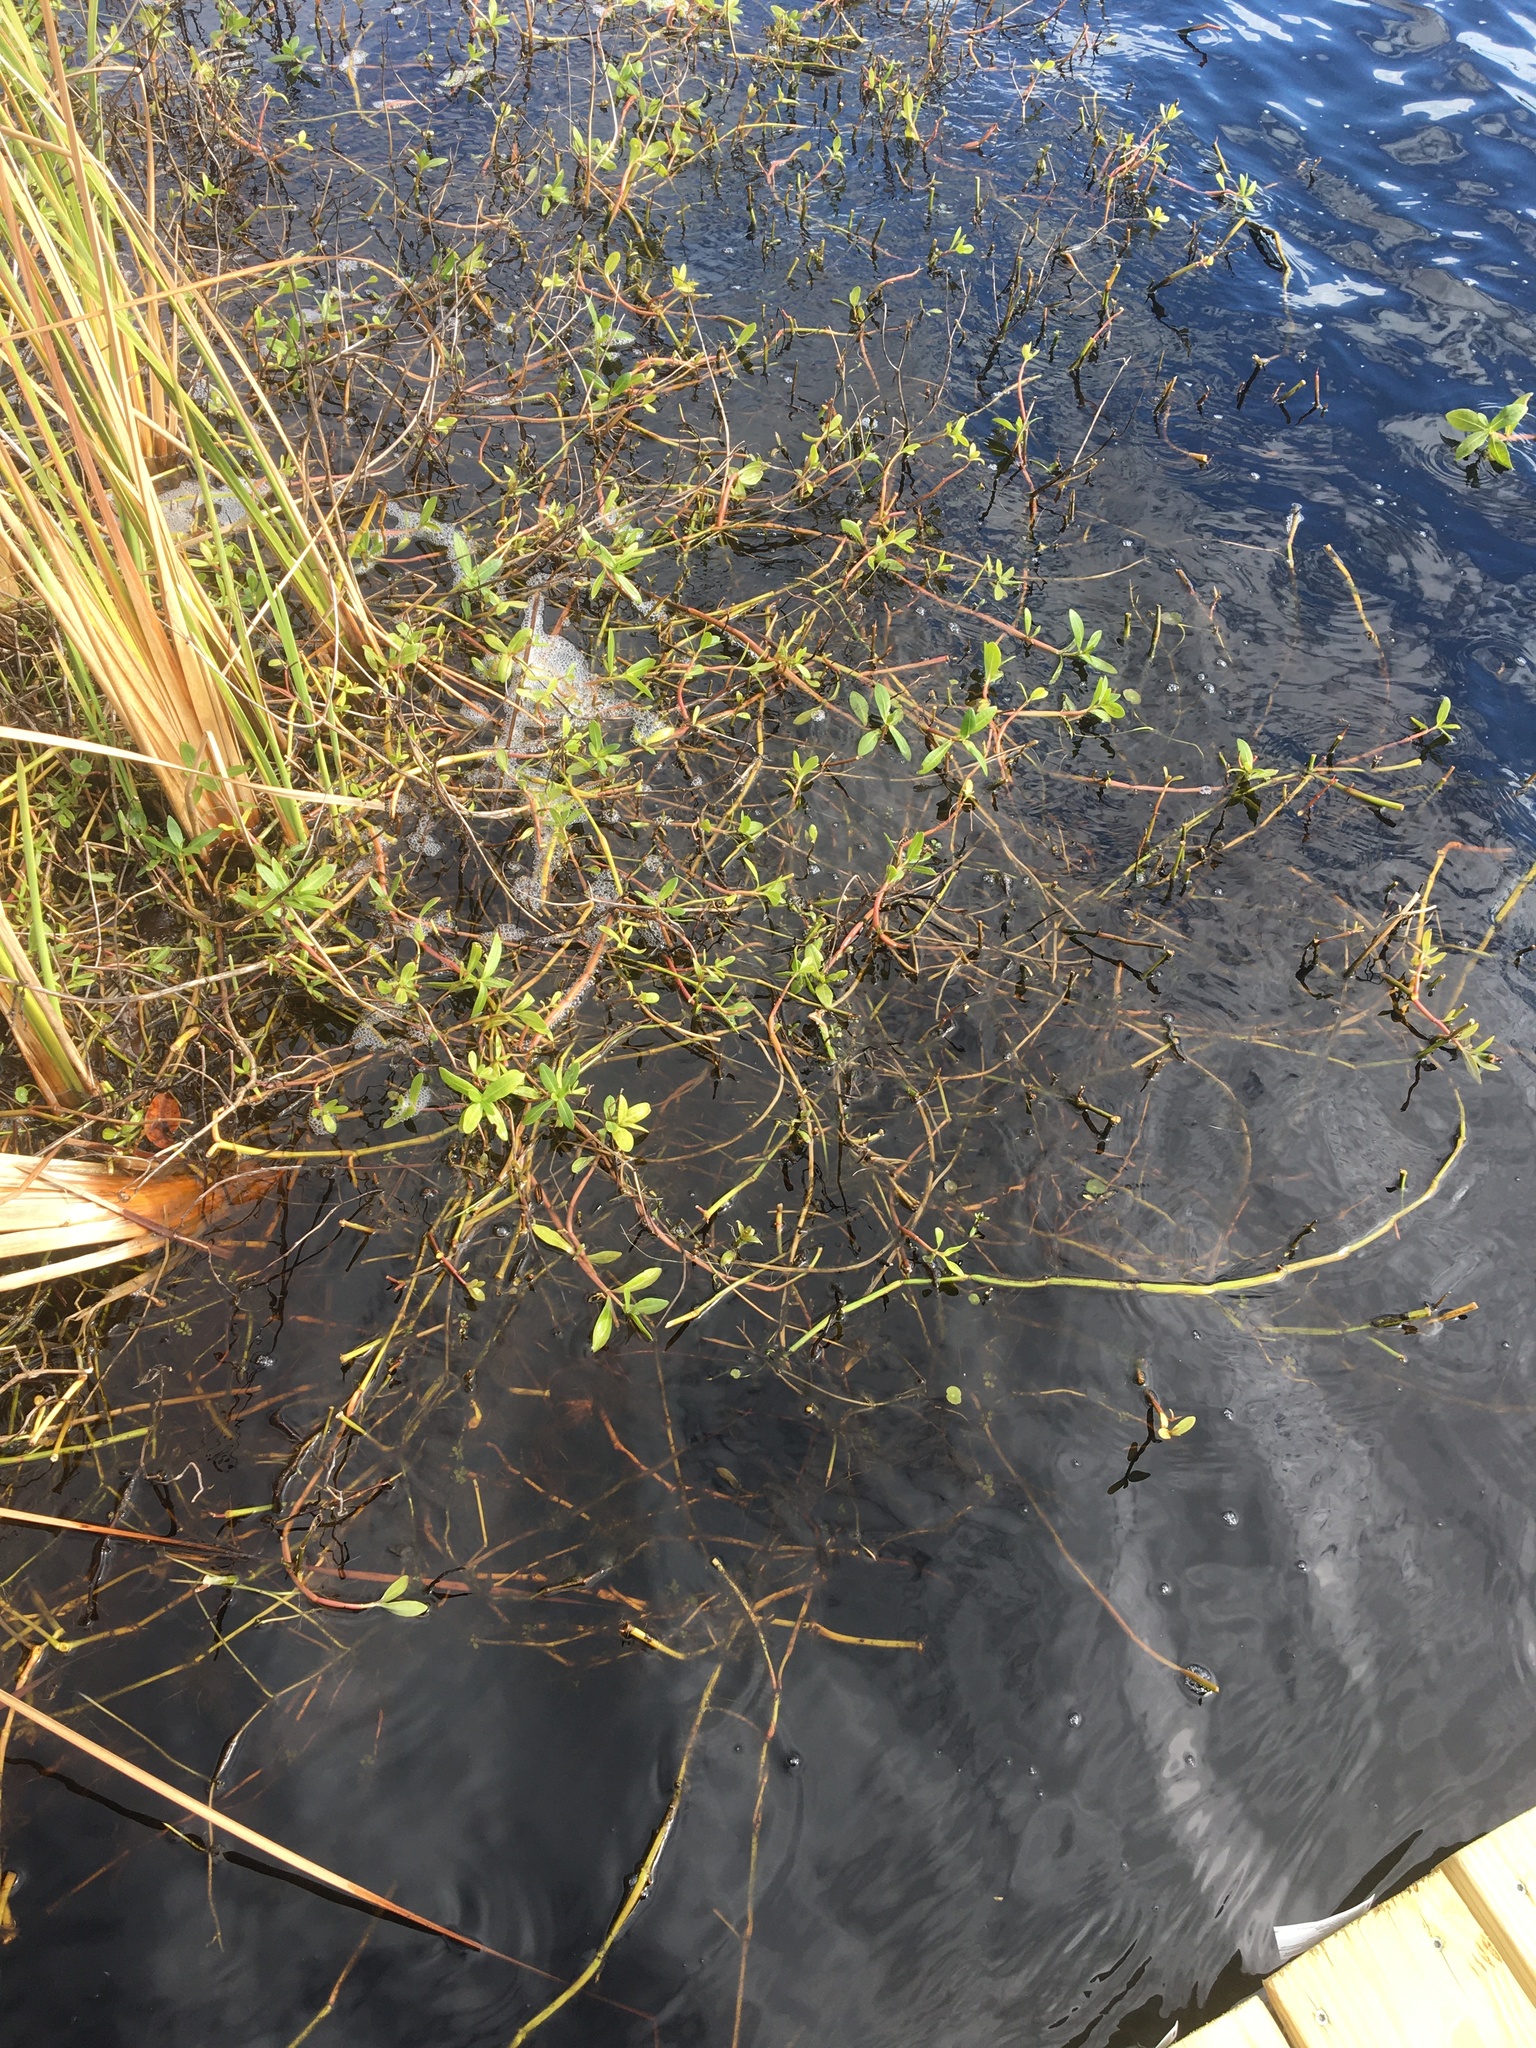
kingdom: Plantae
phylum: Tracheophyta
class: Magnoliopsida
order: Caryophyllales
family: Amaranthaceae
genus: Alternanthera
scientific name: Alternanthera philoxeroides
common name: Alligatorweed
